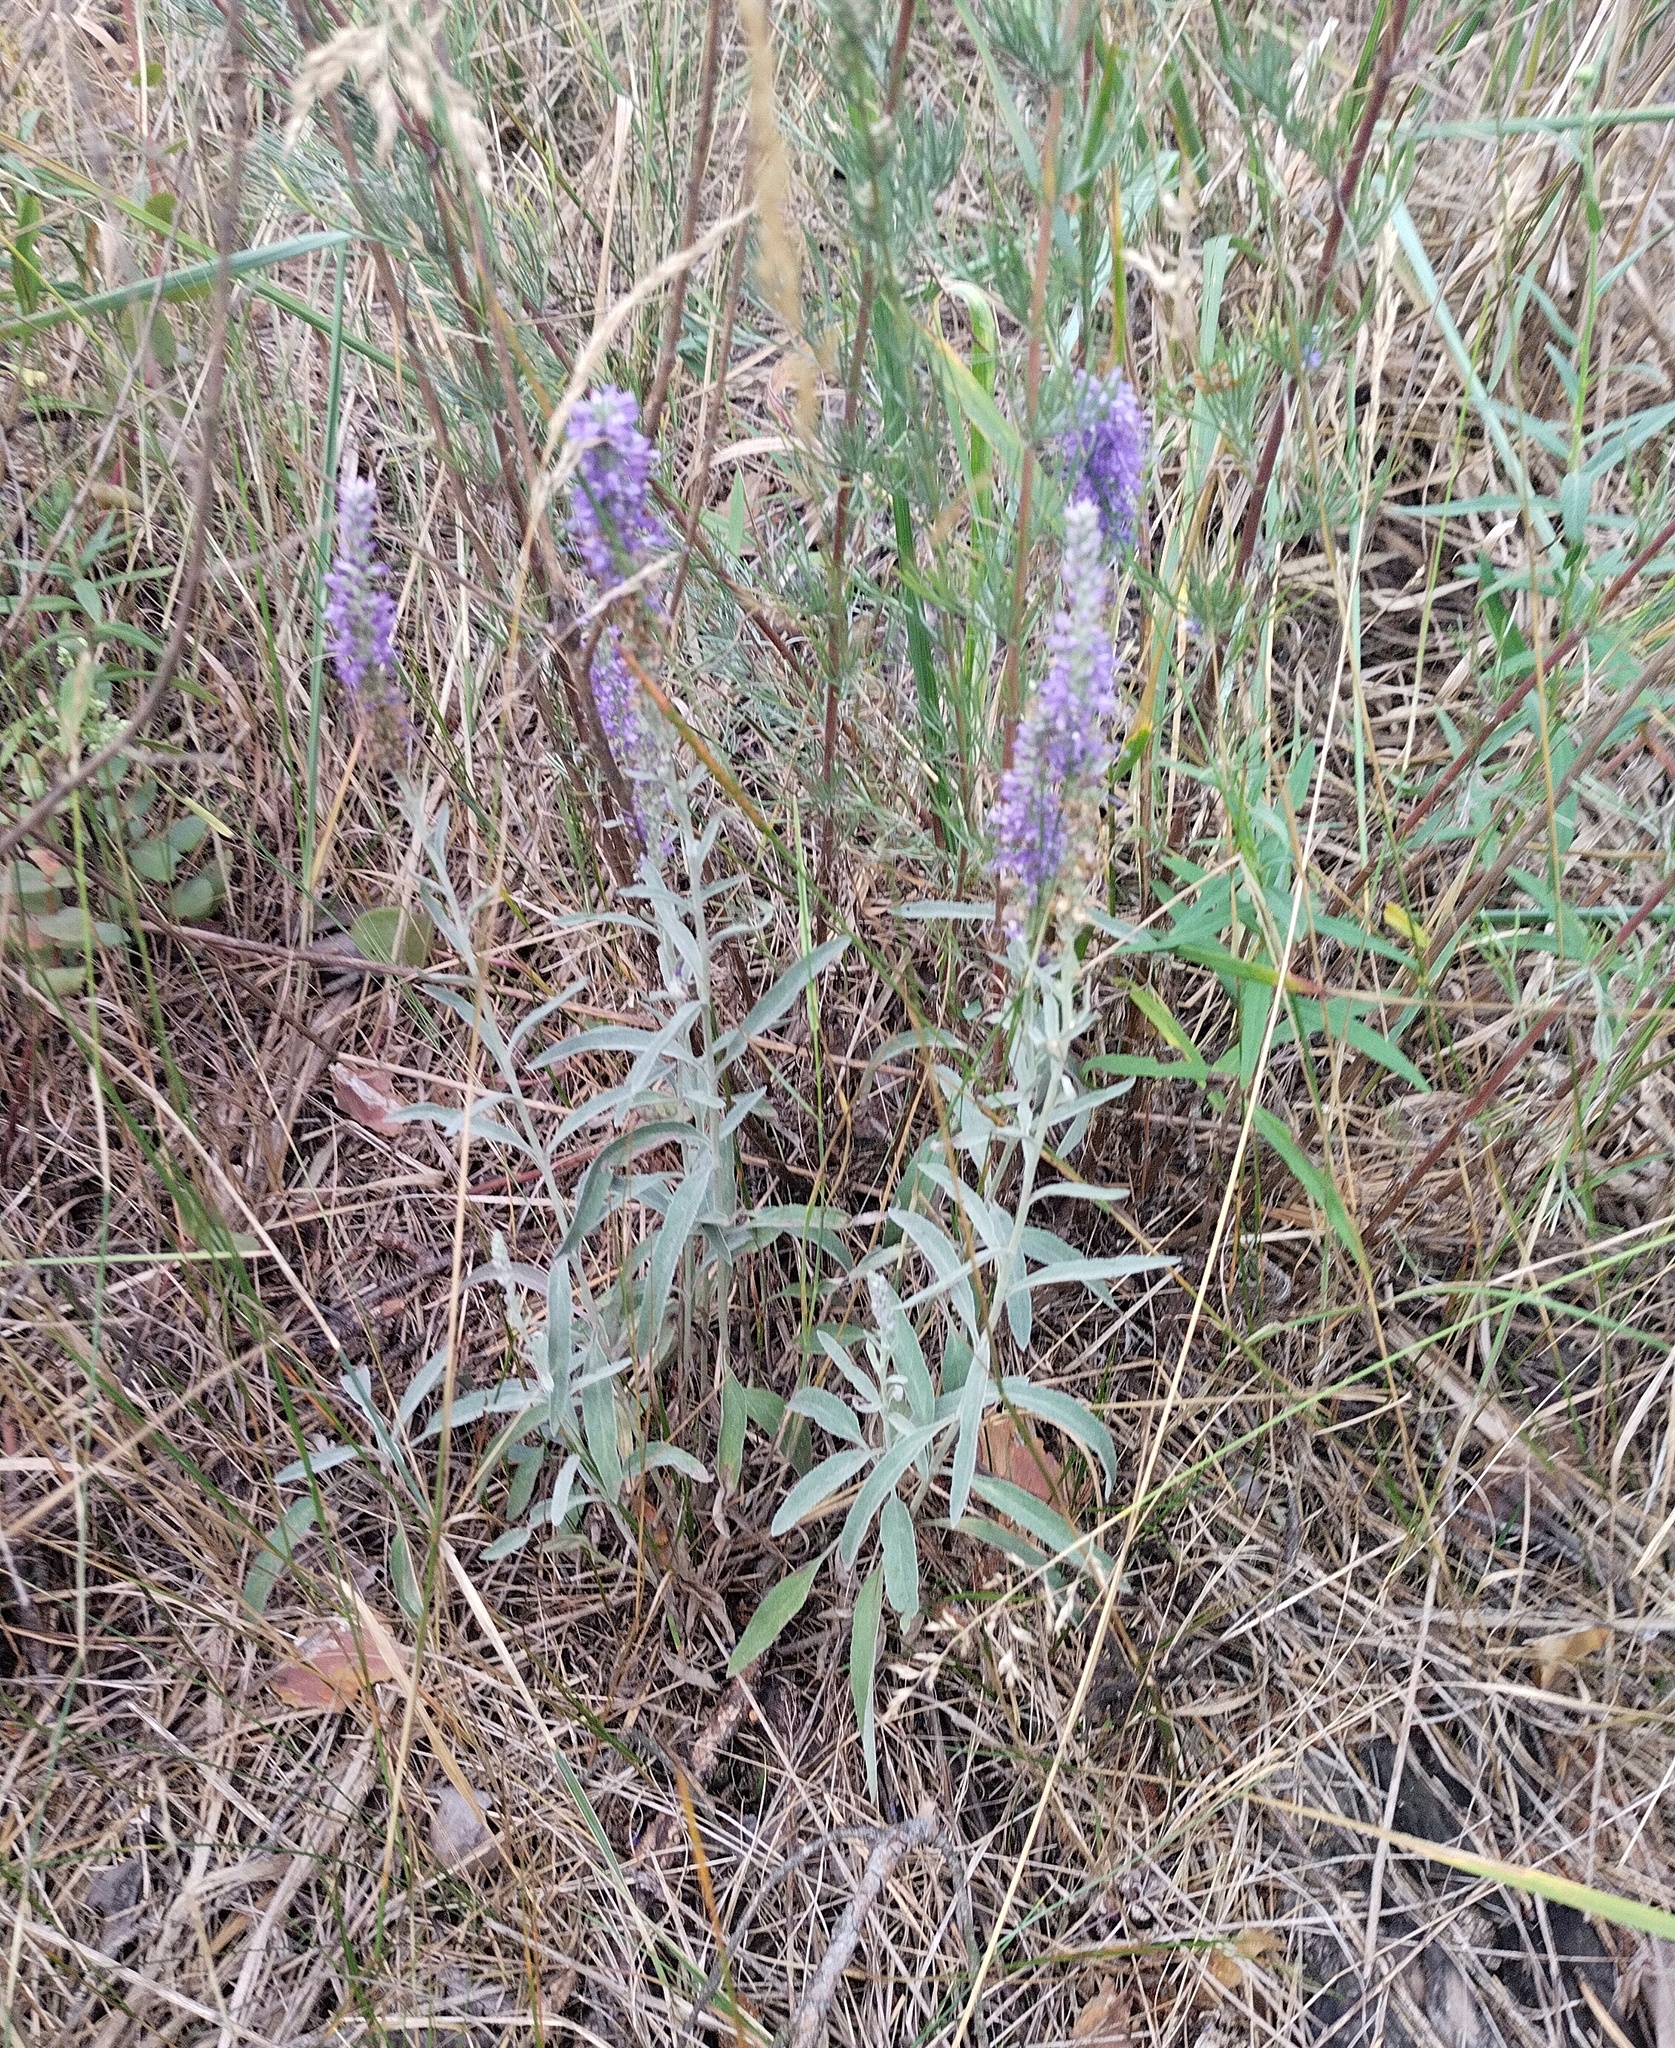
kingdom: Plantae
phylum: Tracheophyta
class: Magnoliopsida
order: Lamiales
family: Plantaginaceae
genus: Veronica
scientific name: Veronica incana
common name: Silver speedwell
